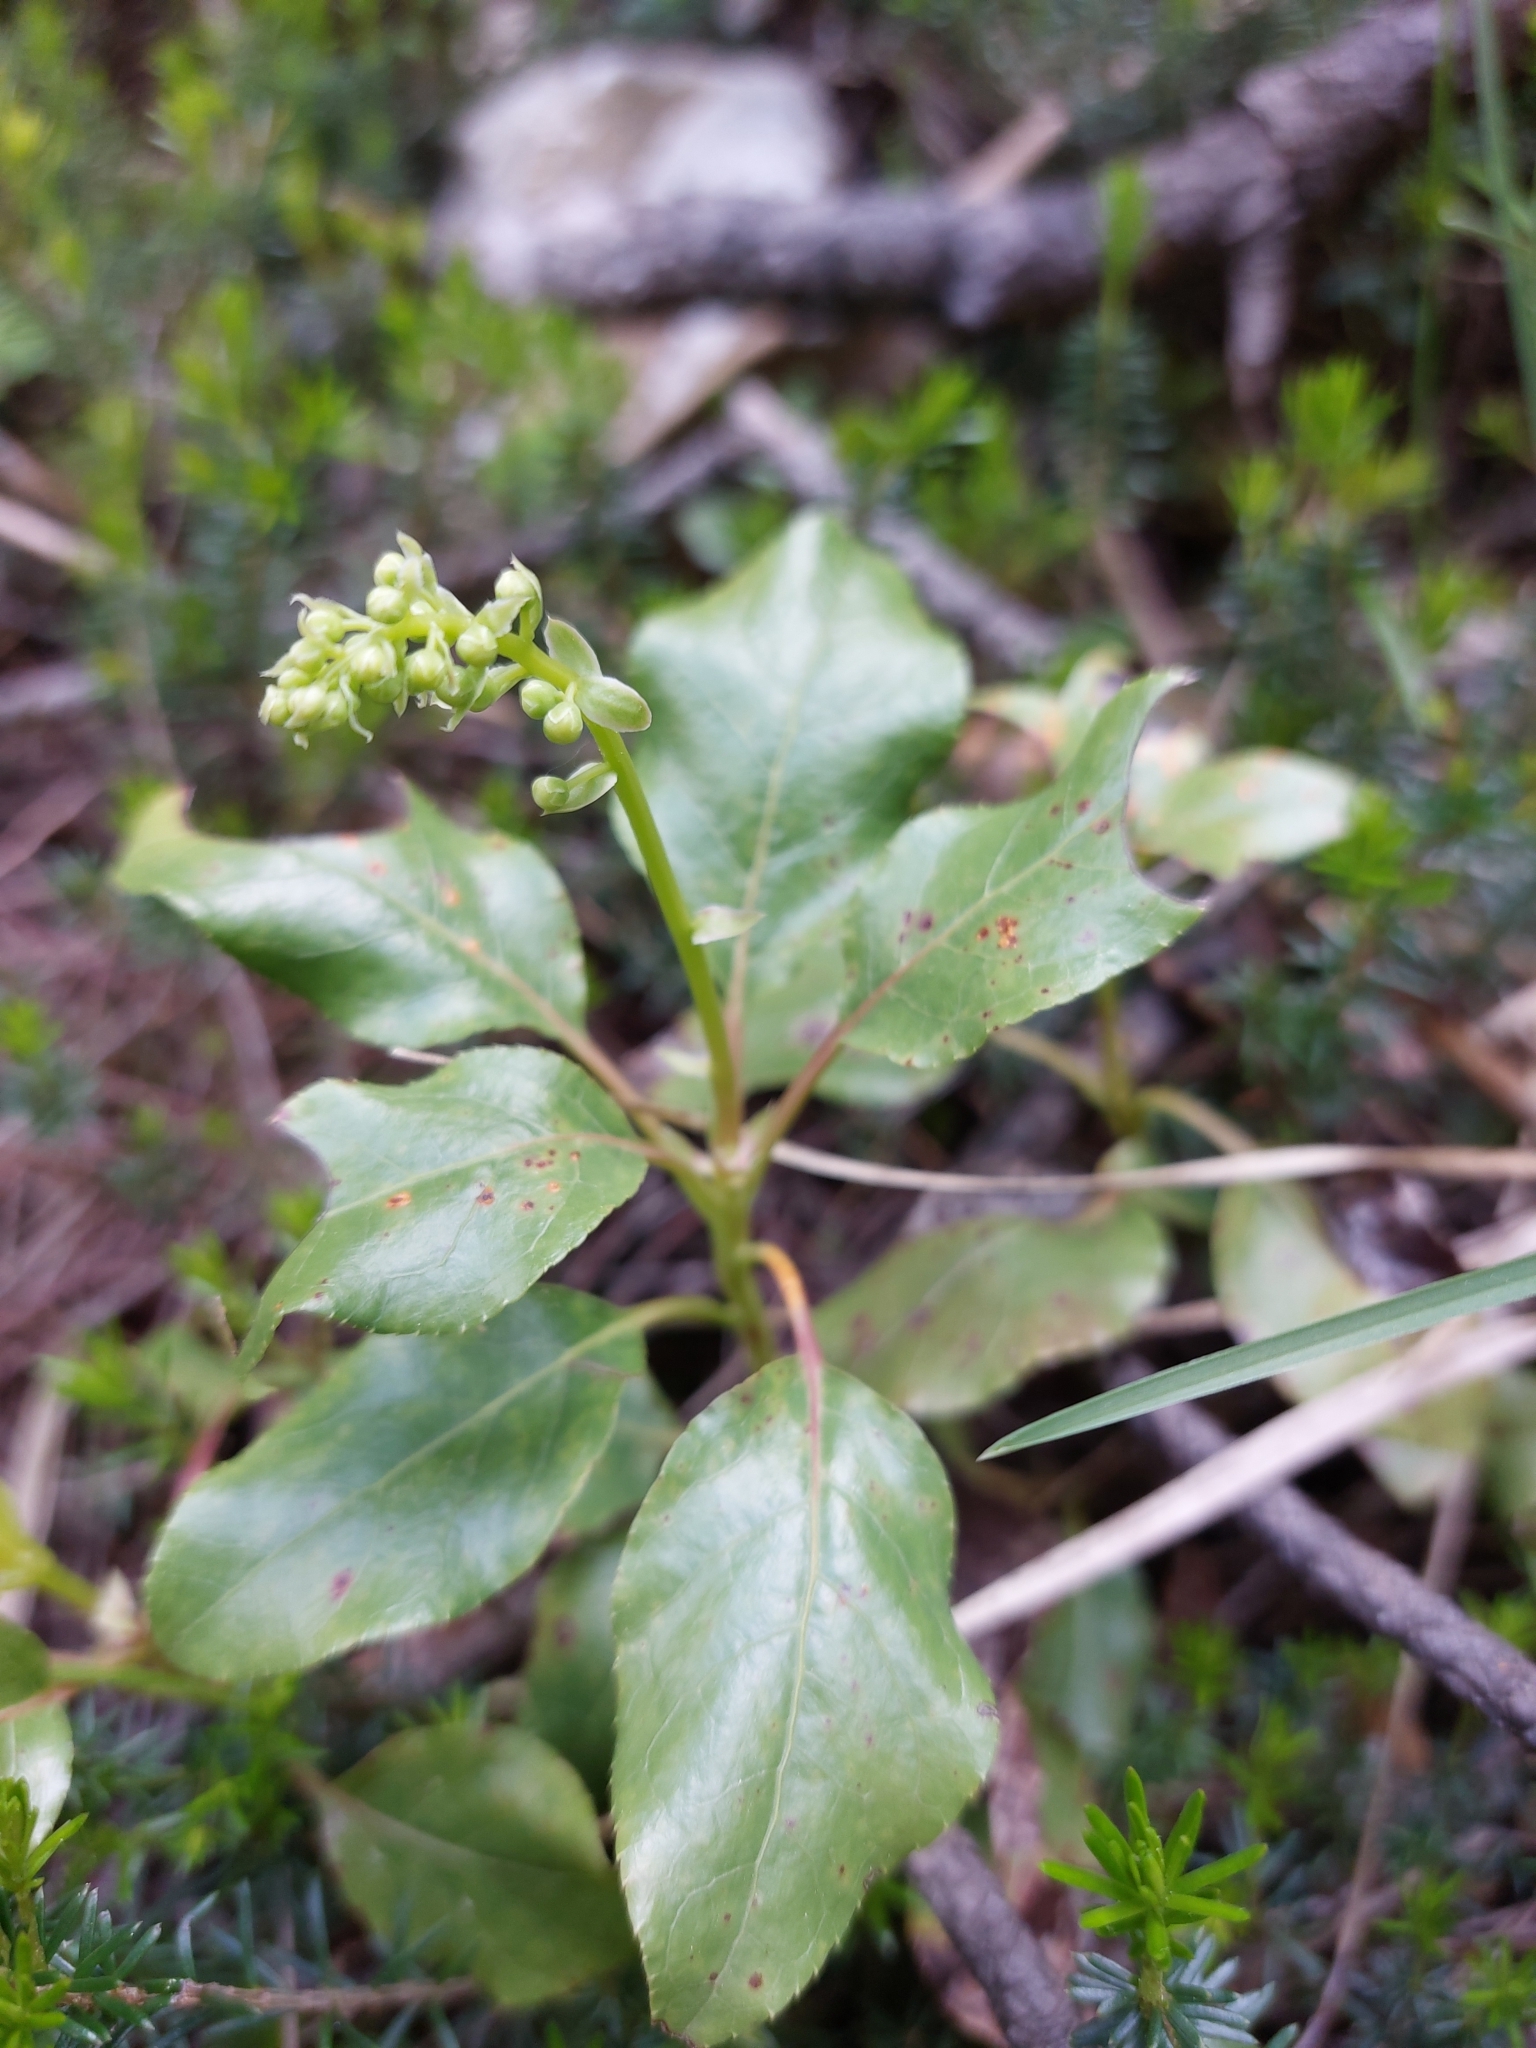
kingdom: Plantae
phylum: Tracheophyta
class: Magnoliopsida
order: Ericales
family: Ericaceae
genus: Orthilia
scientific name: Orthilia secunda
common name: One-sided orthilia
